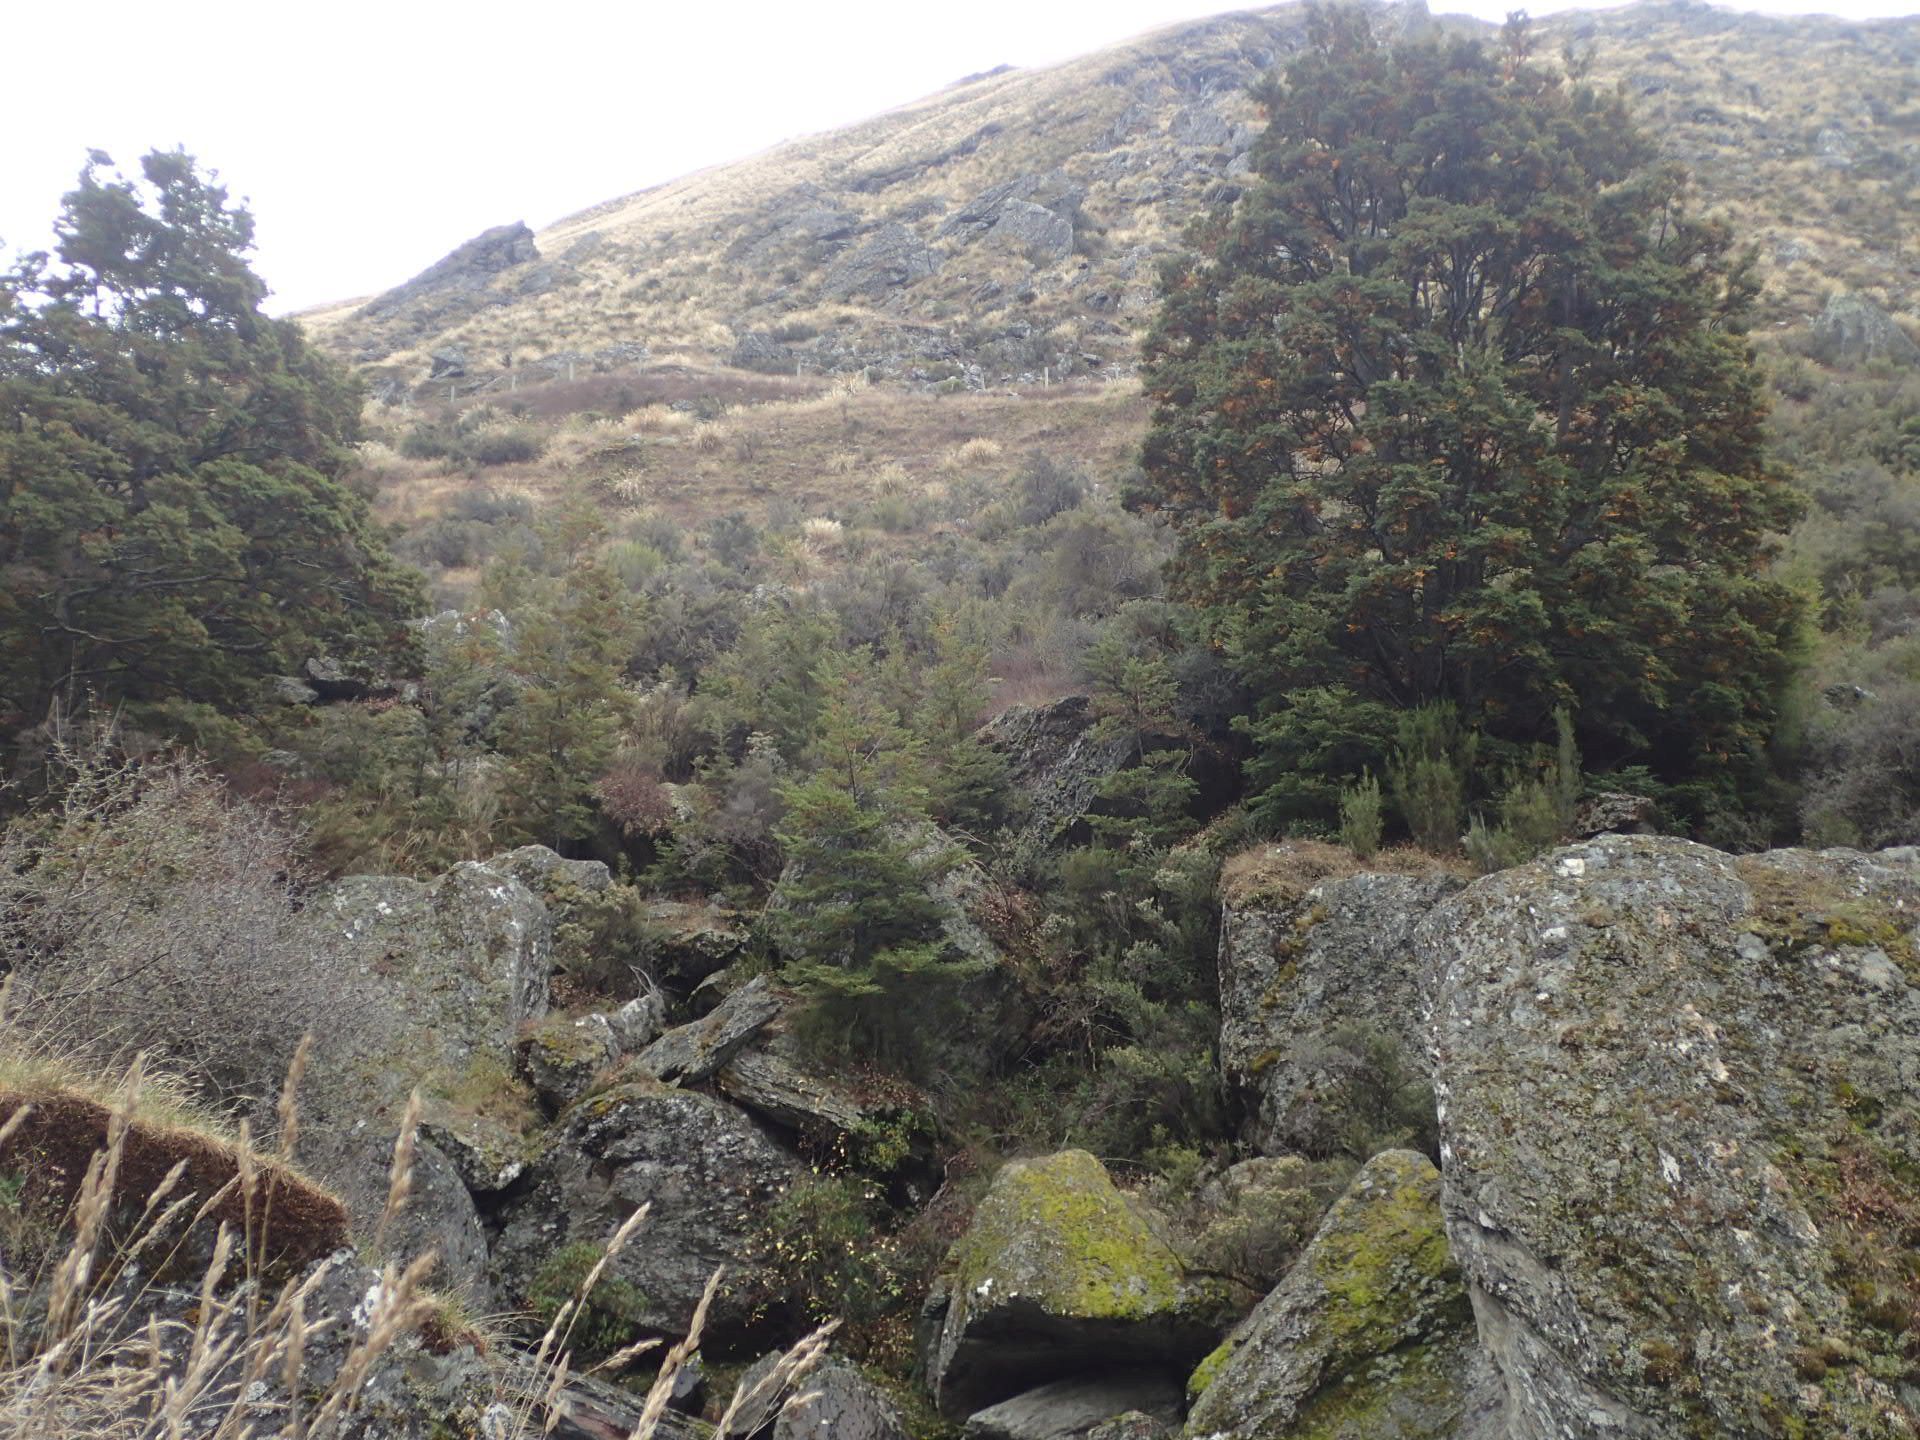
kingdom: Plantae
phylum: Tracheophyta
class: Magnoliopsida
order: Fagales
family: Nothofagaceae
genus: Nothofagus
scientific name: Nothofagus cliffortioides
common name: Mountain beech
